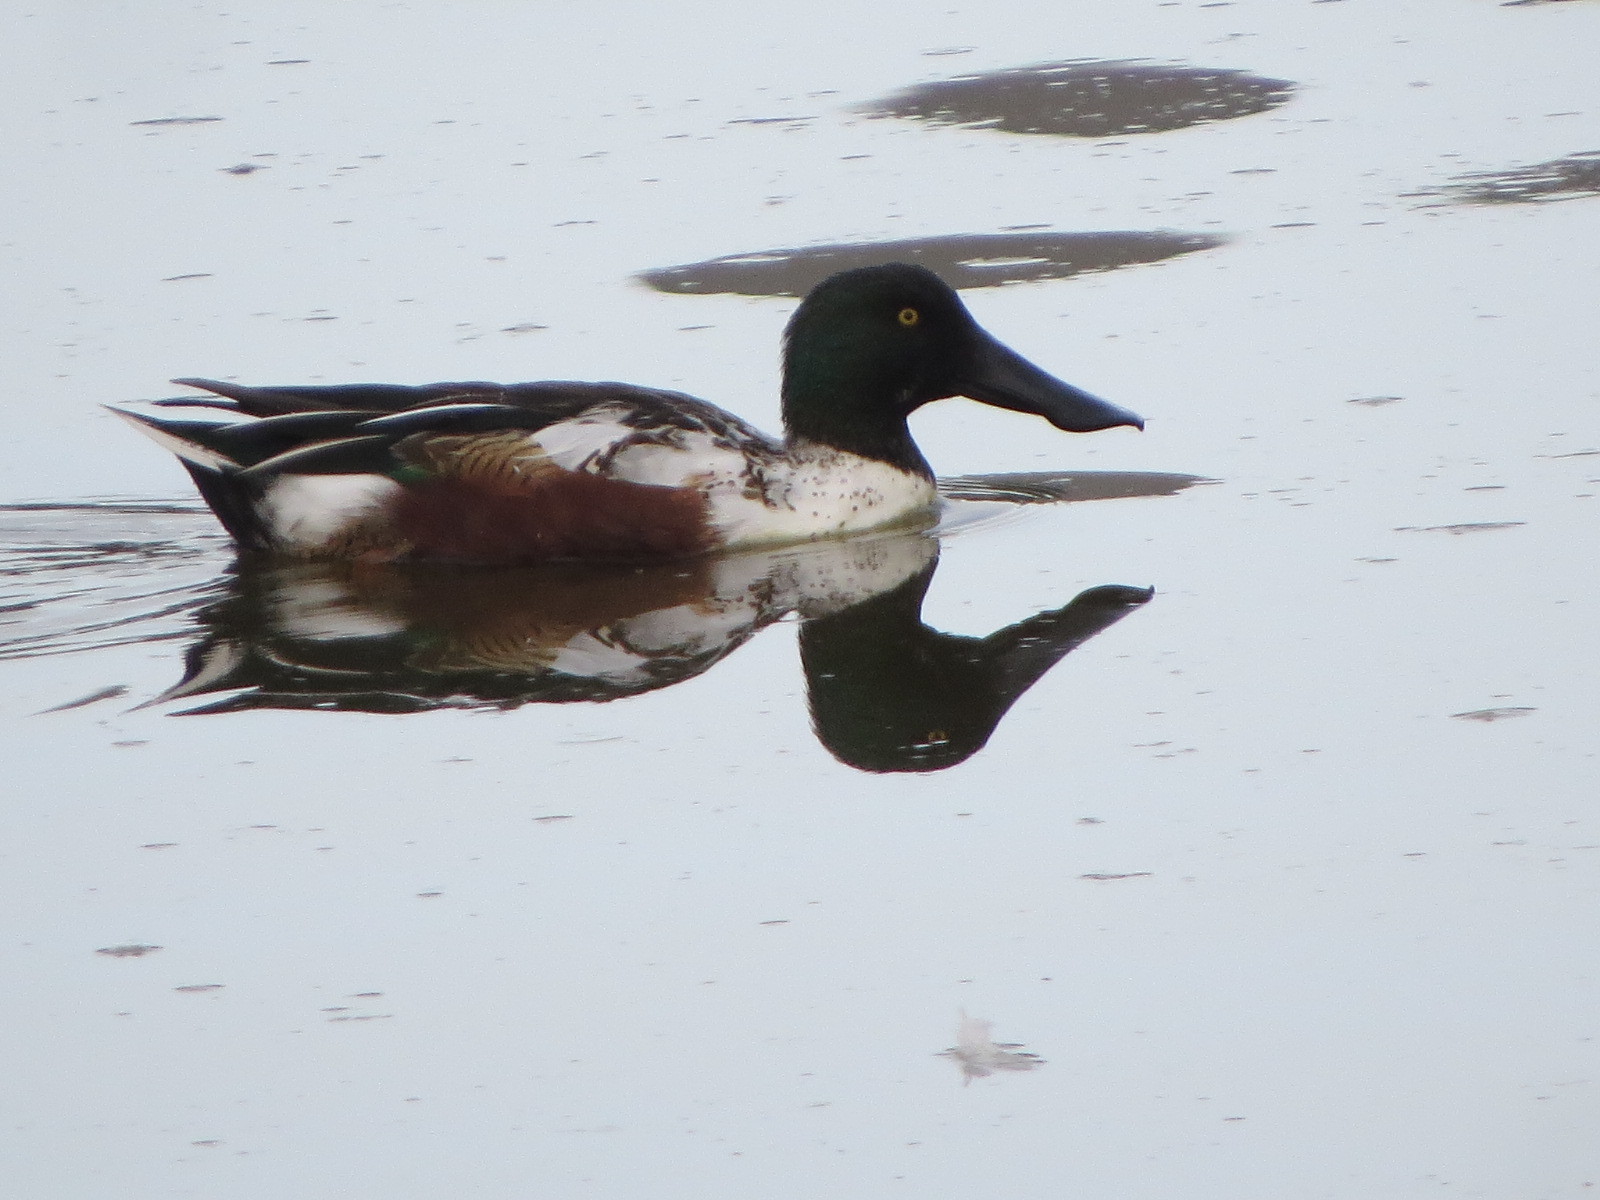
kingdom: Animalia
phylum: Chordata
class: Aves
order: Anseriformes
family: Anatidae
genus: Spatula
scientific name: Spatula clypeata
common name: Northern shoveler
